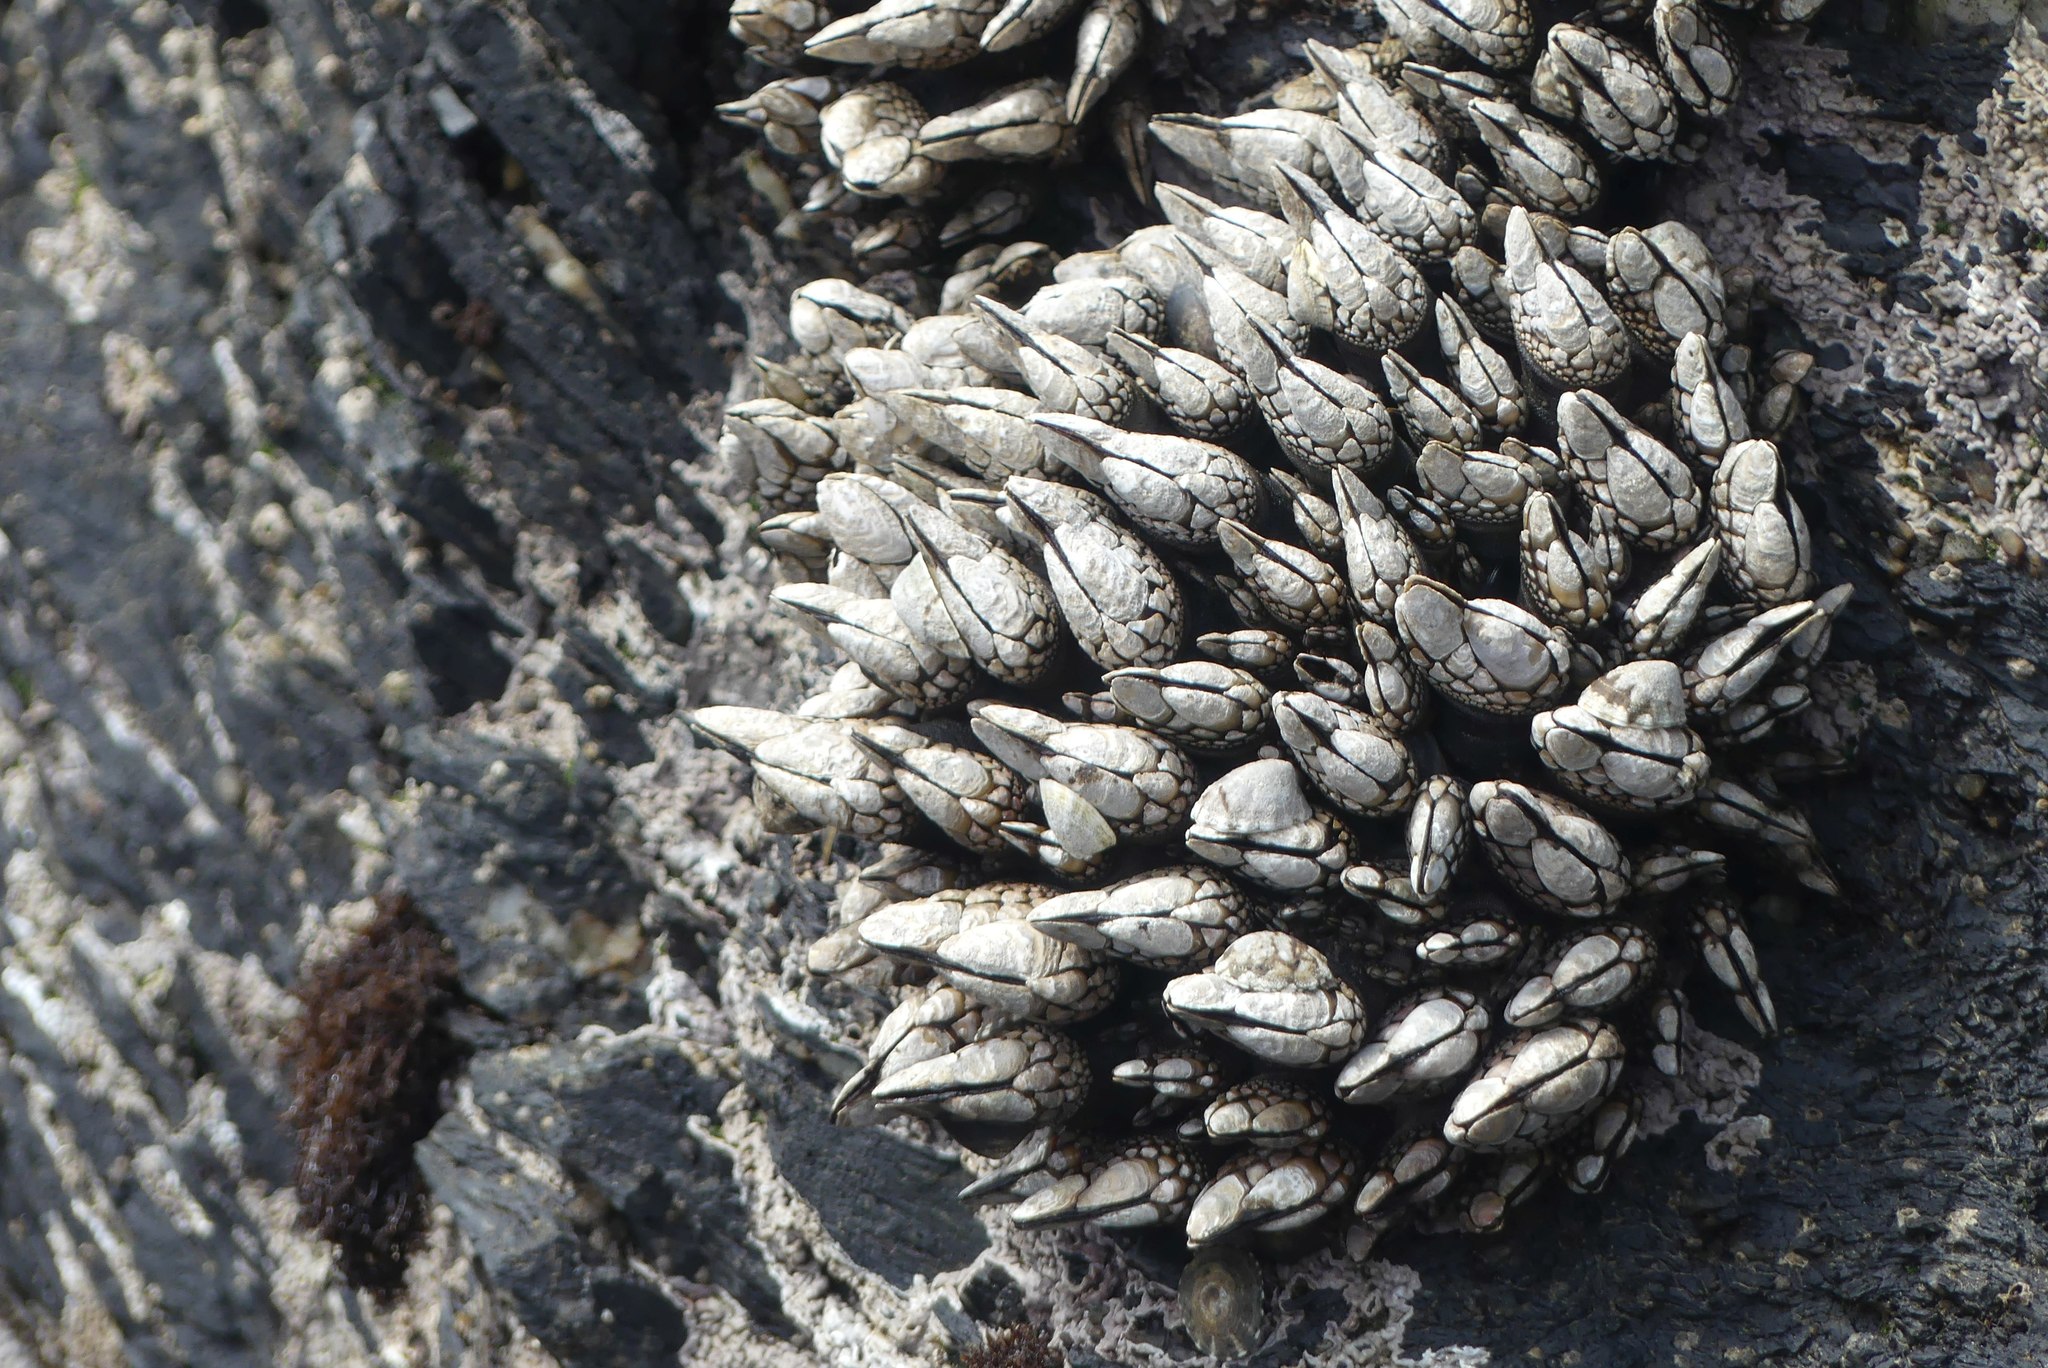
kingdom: Animalia
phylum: Arthropoda
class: Maxillopoda
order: Pedunculata
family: Pollicipedidae
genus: Pollicipes
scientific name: Pollicipes polymerus
